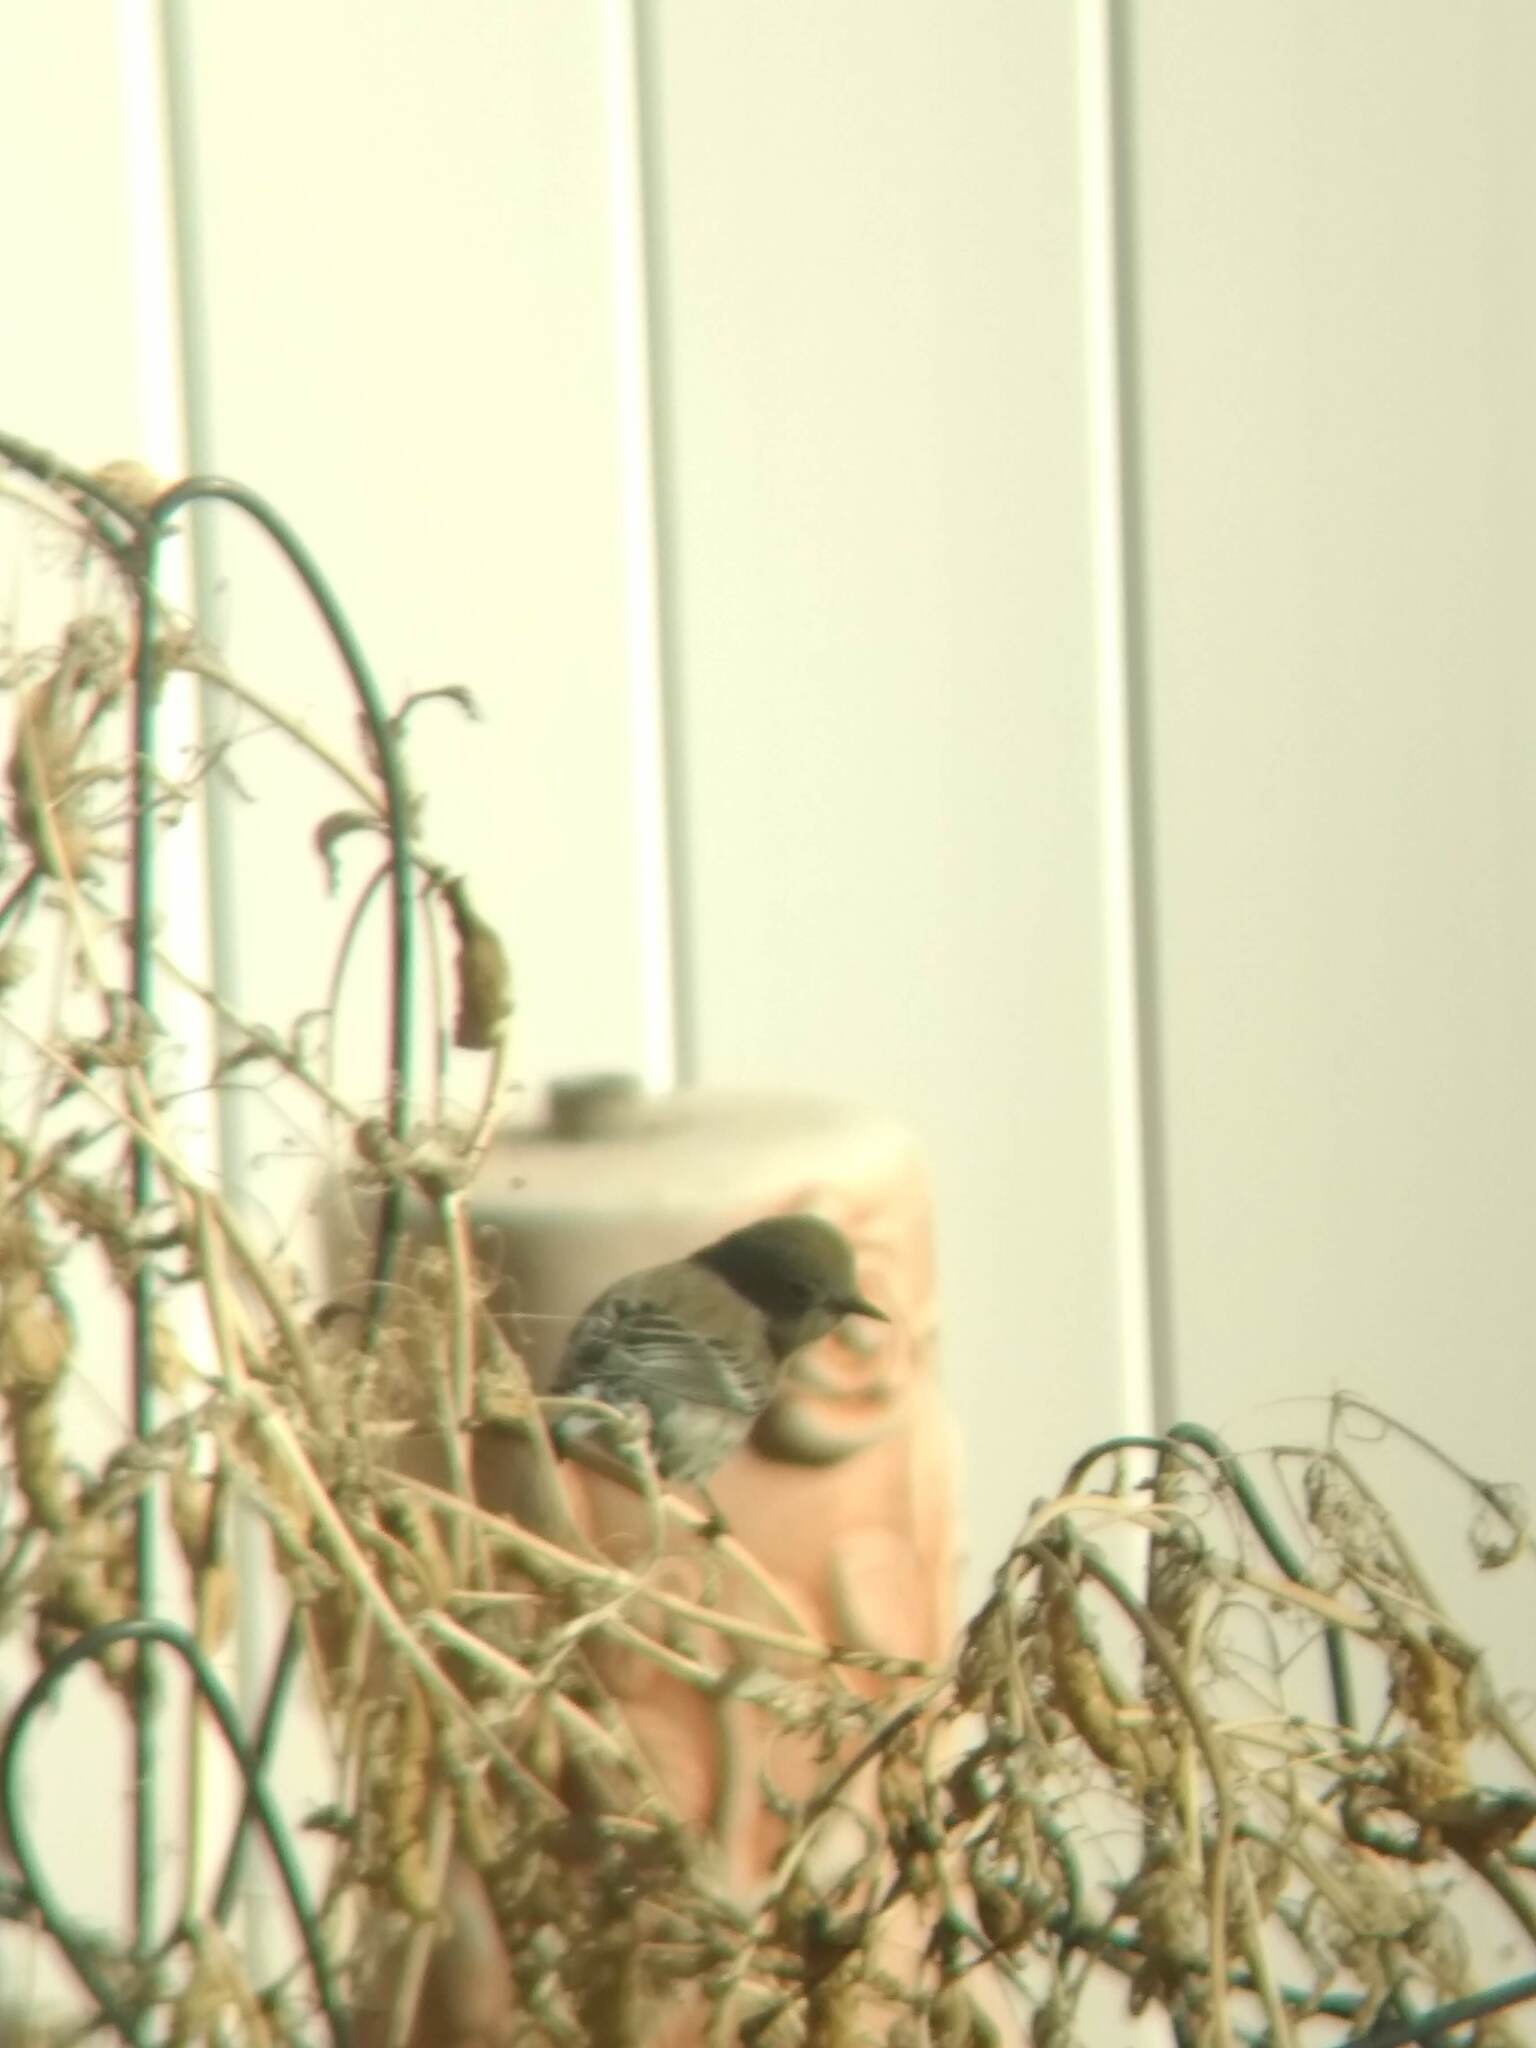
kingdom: Animalia
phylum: Chordata
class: Aves
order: Passeriformes
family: Parulidae
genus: Setophaga
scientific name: Setophaga coronata
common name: Myrtle warbler
